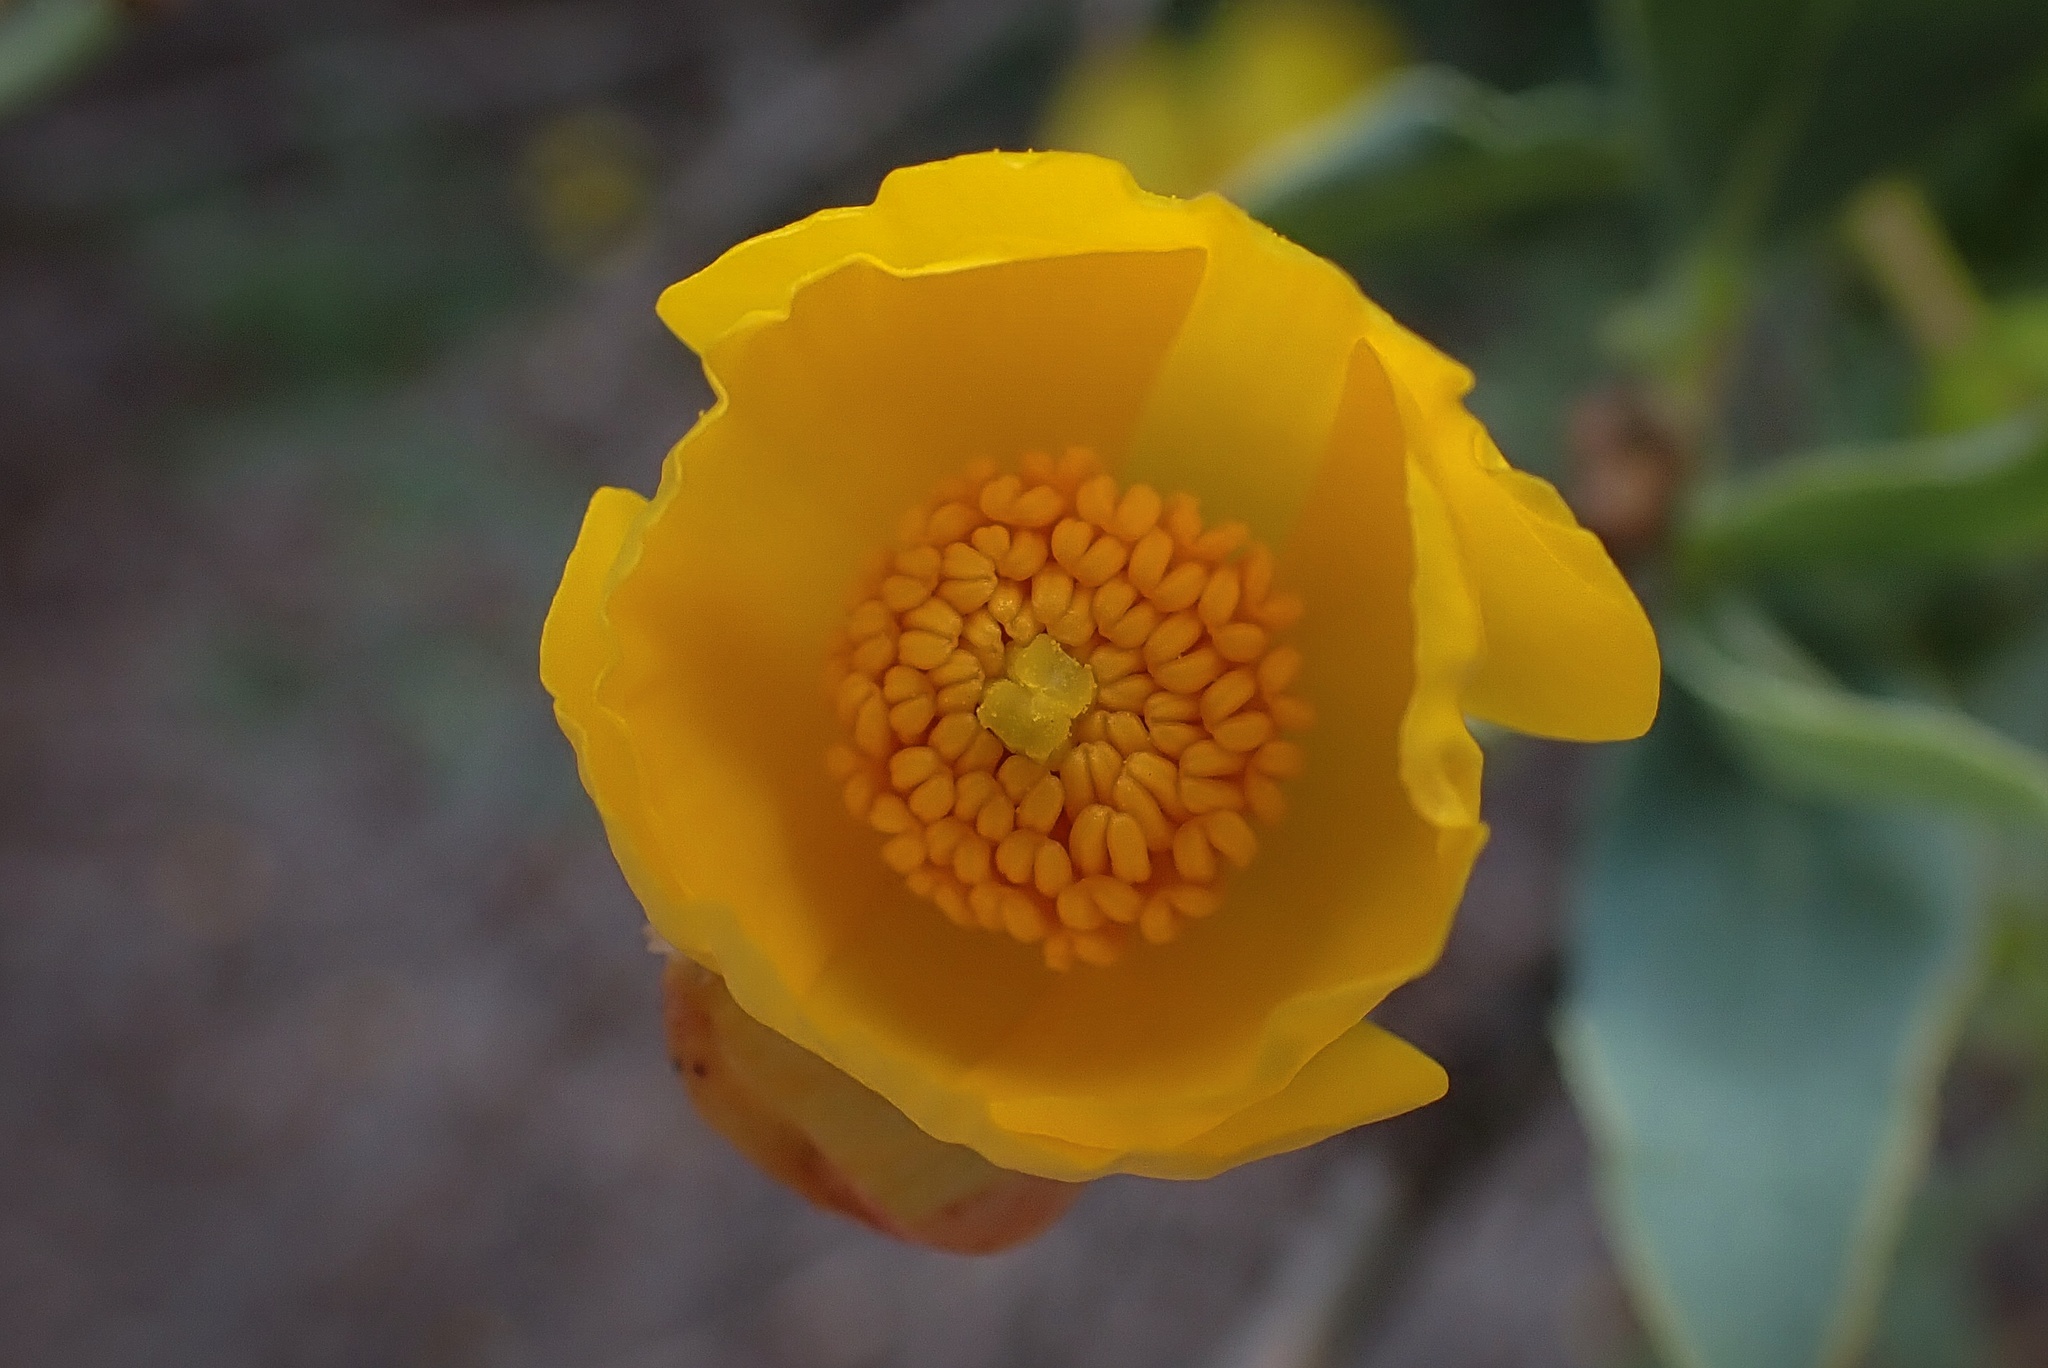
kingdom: Plantae
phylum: Tracheophyta
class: Magnoliopsida
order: Ranunculales
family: Papaveraceae
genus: Dendromecon
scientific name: Dendromecon rigida
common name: Tree poppy
